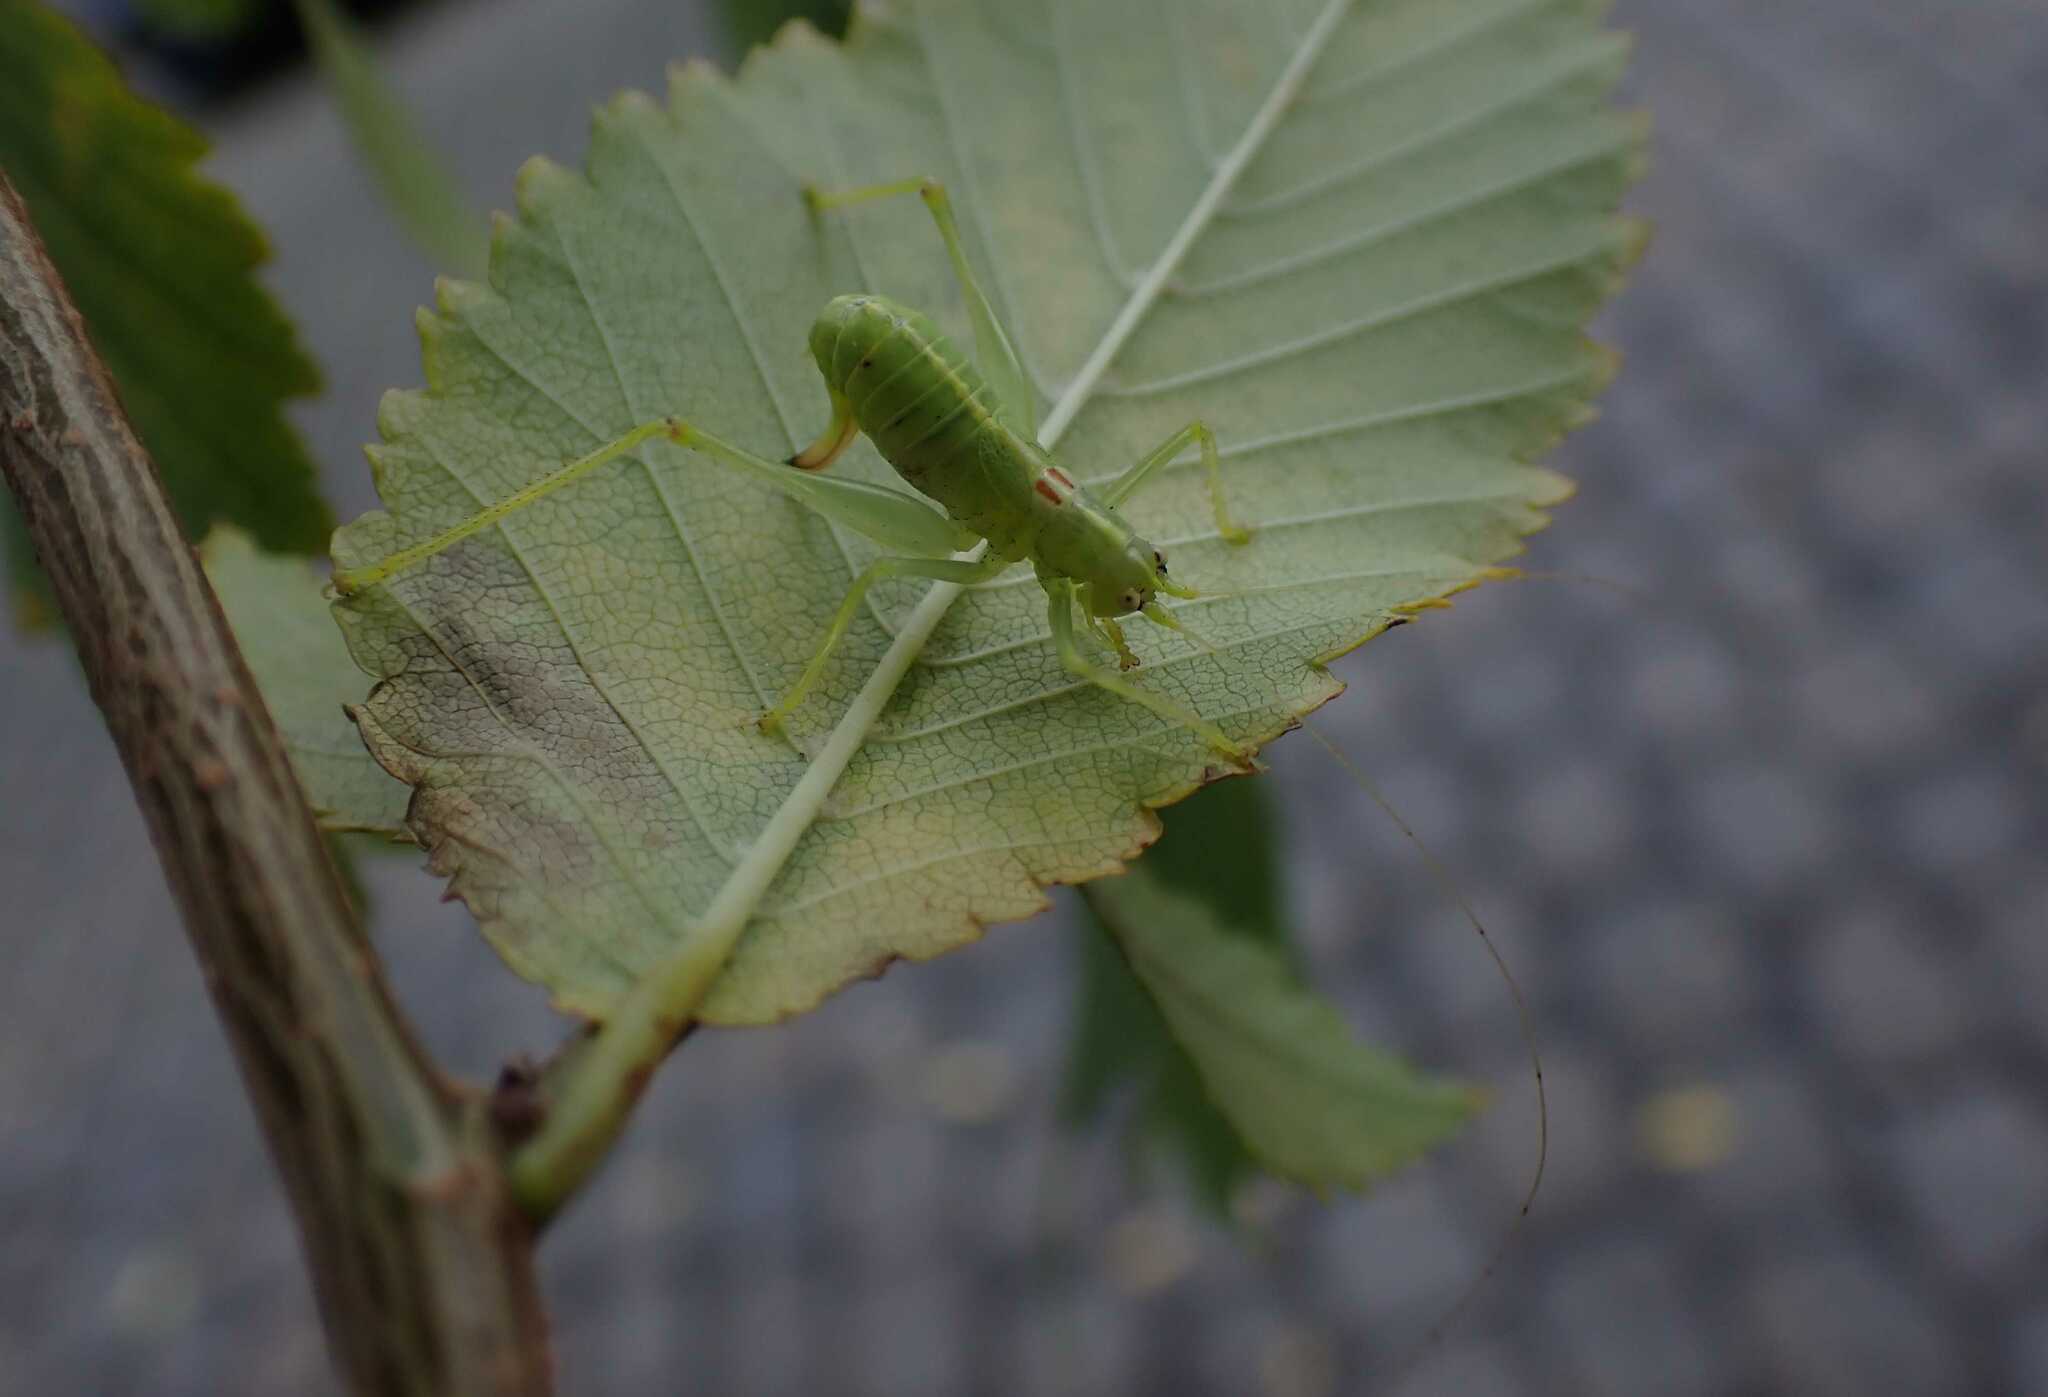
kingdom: Animalia
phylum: Arthropoda
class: Insecta
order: Orthoptera
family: Tettigoniidae
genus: Meconema
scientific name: Meconema meridionale
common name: Southern oak bush-cricket
